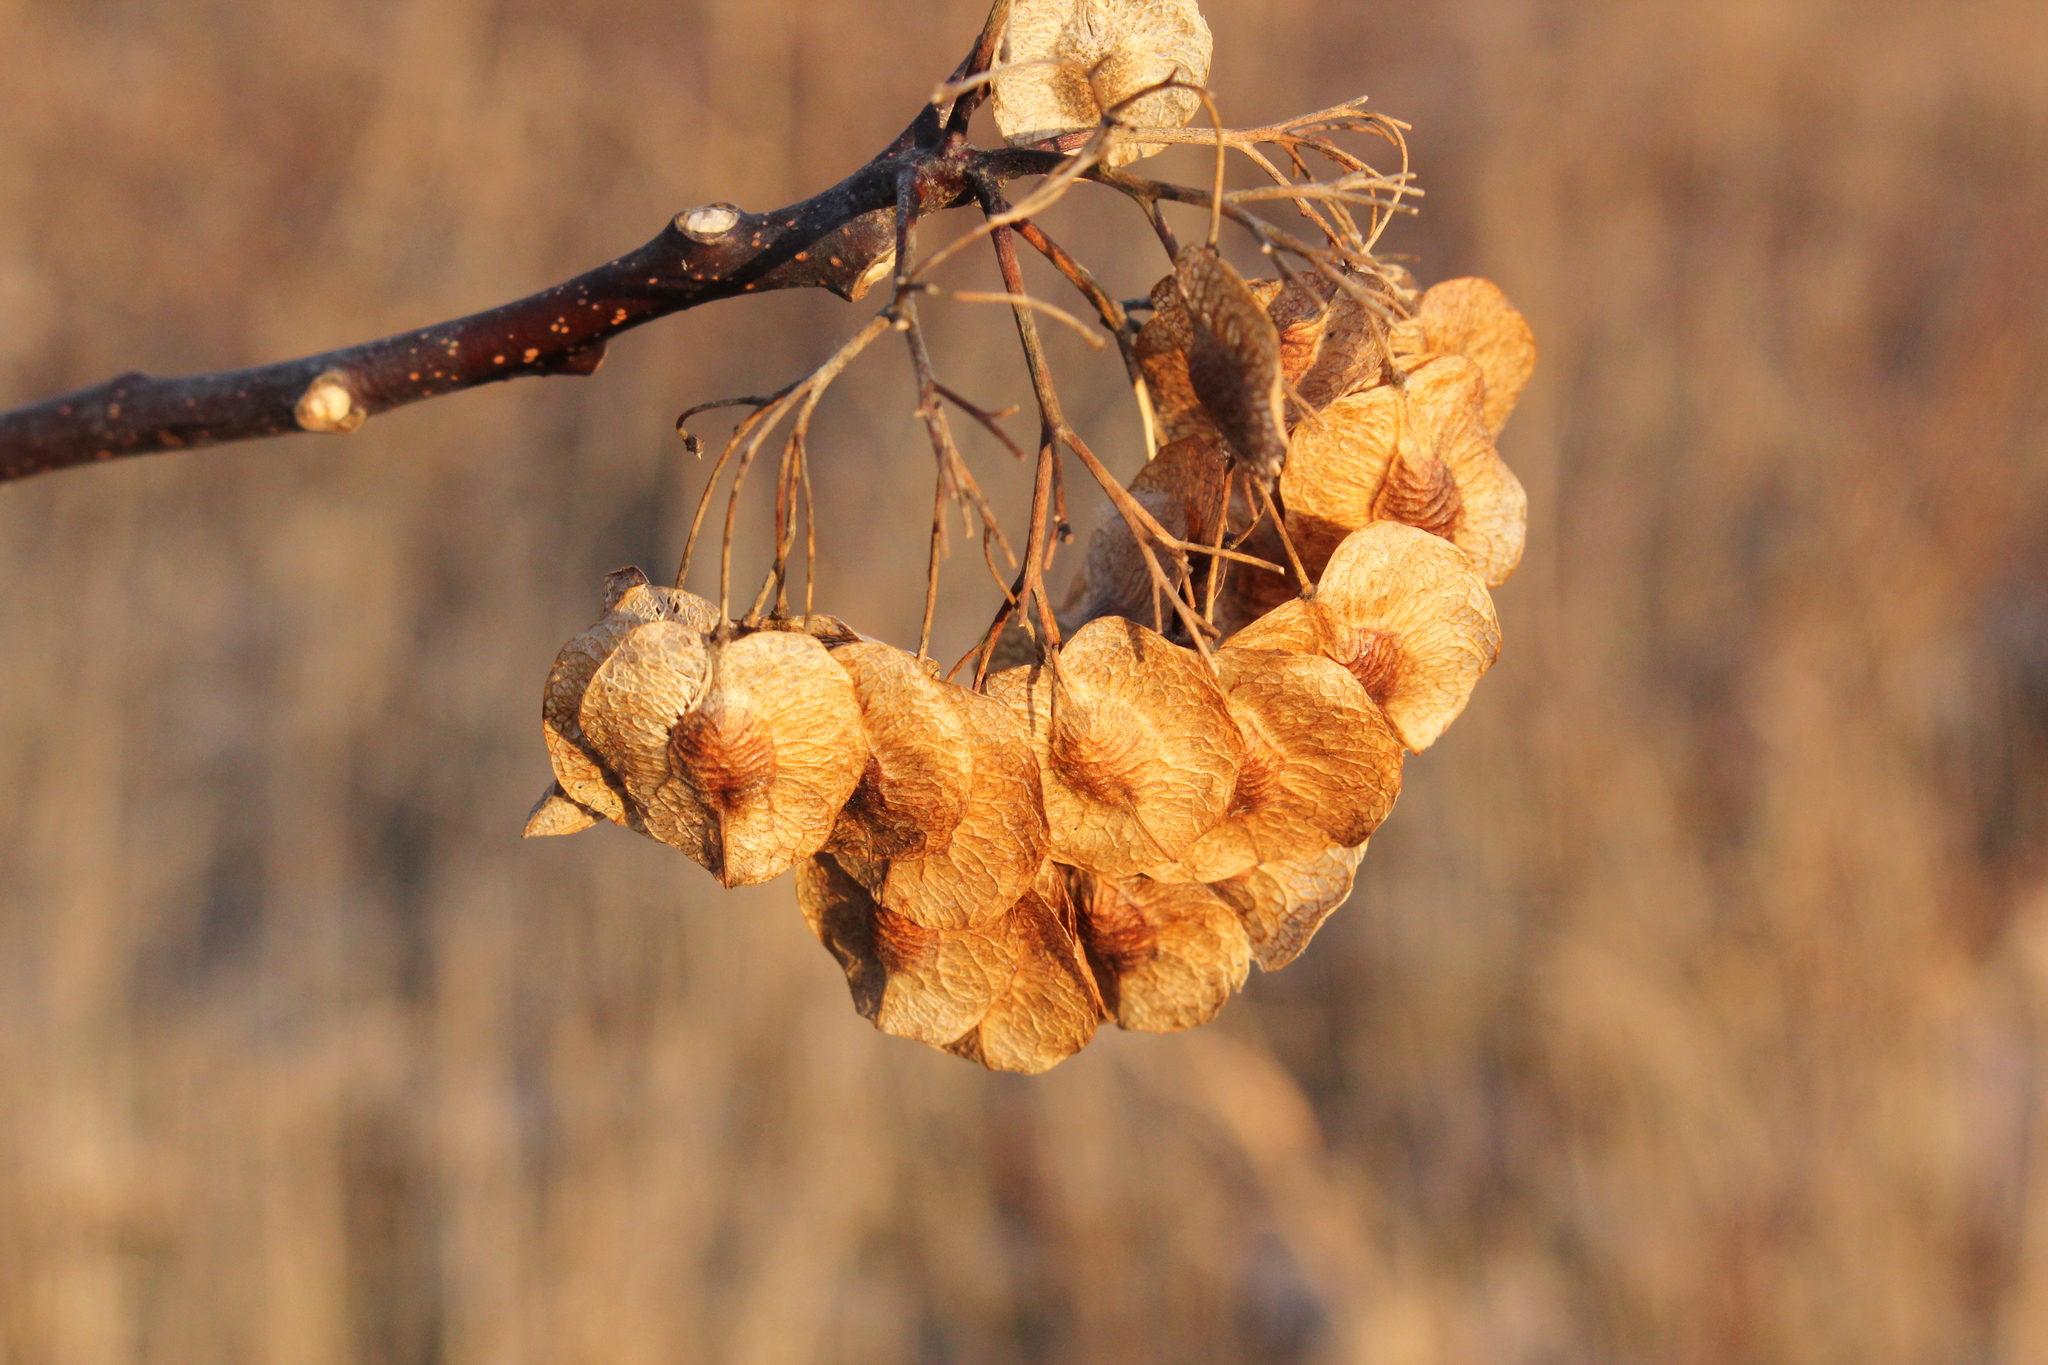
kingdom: Plantae
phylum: Tracheophyta
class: Magnoliopsida
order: Sapindales
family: Rutaceae
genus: Ptelea
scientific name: Ptelea trifoliata
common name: Common hop-tree
